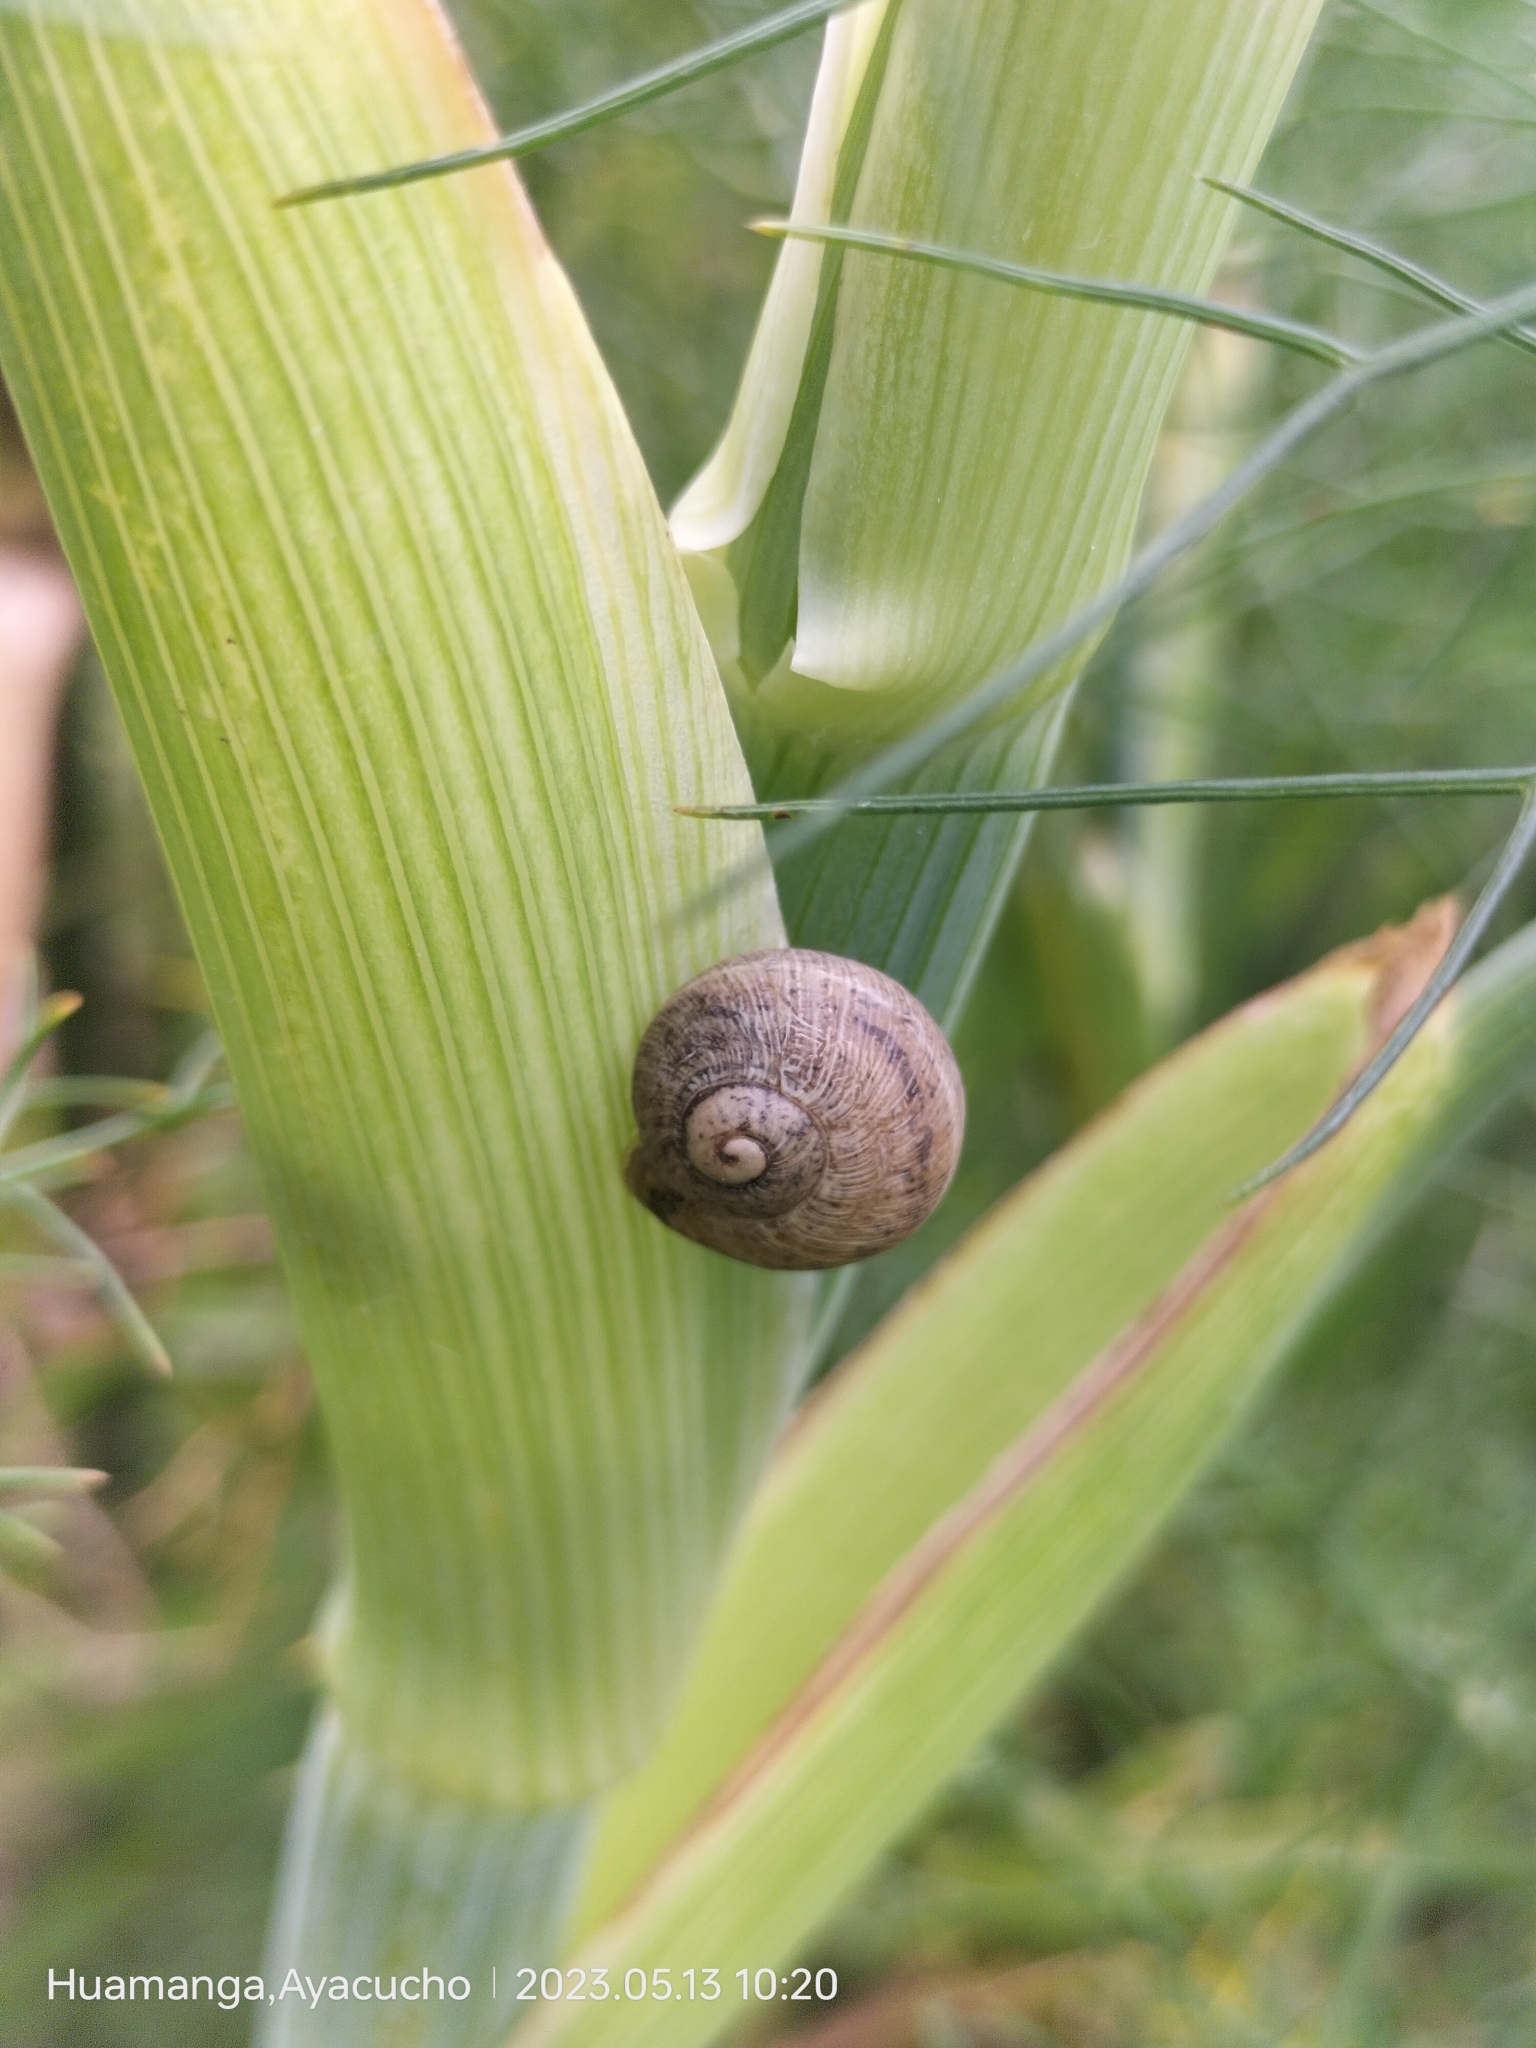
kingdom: Animalia
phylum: Mollusca
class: Gastropoda
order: Stylommatophora
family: Helicidae
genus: Cornu
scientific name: Cornu aspersum
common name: Brown garden snail
